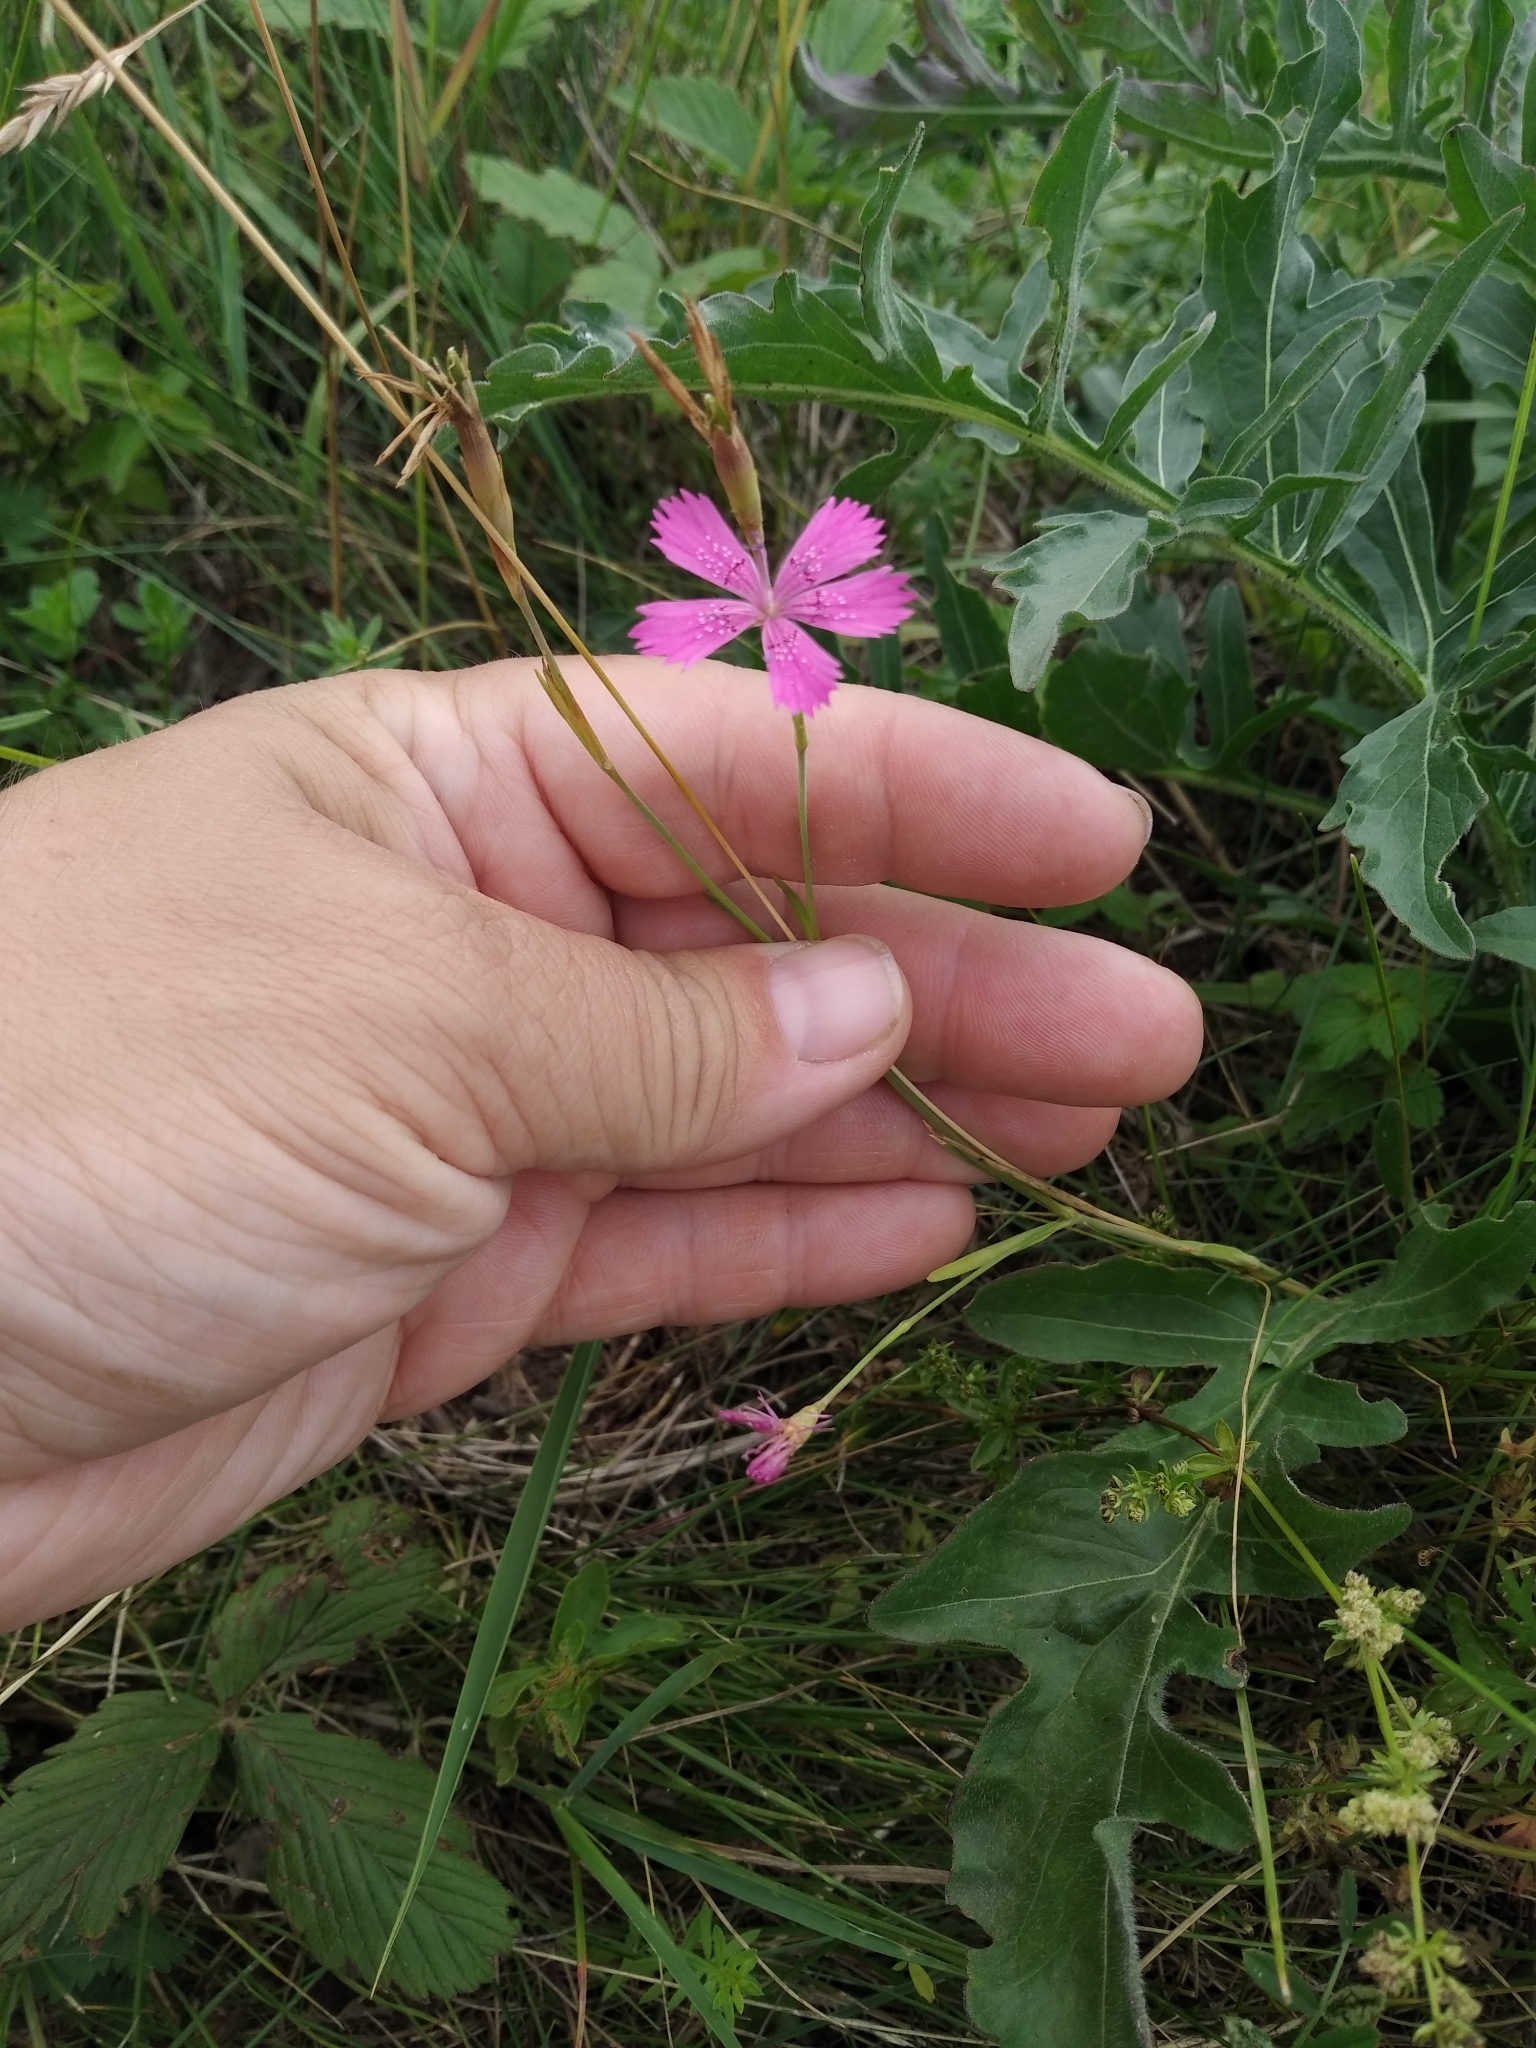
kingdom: Plantae
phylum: Tracheophyta
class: Magnoliopsida
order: Caryophyllales
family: Caryophyllaceae
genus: Dianthus
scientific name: Dianthus deltoides
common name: Maiden pink
